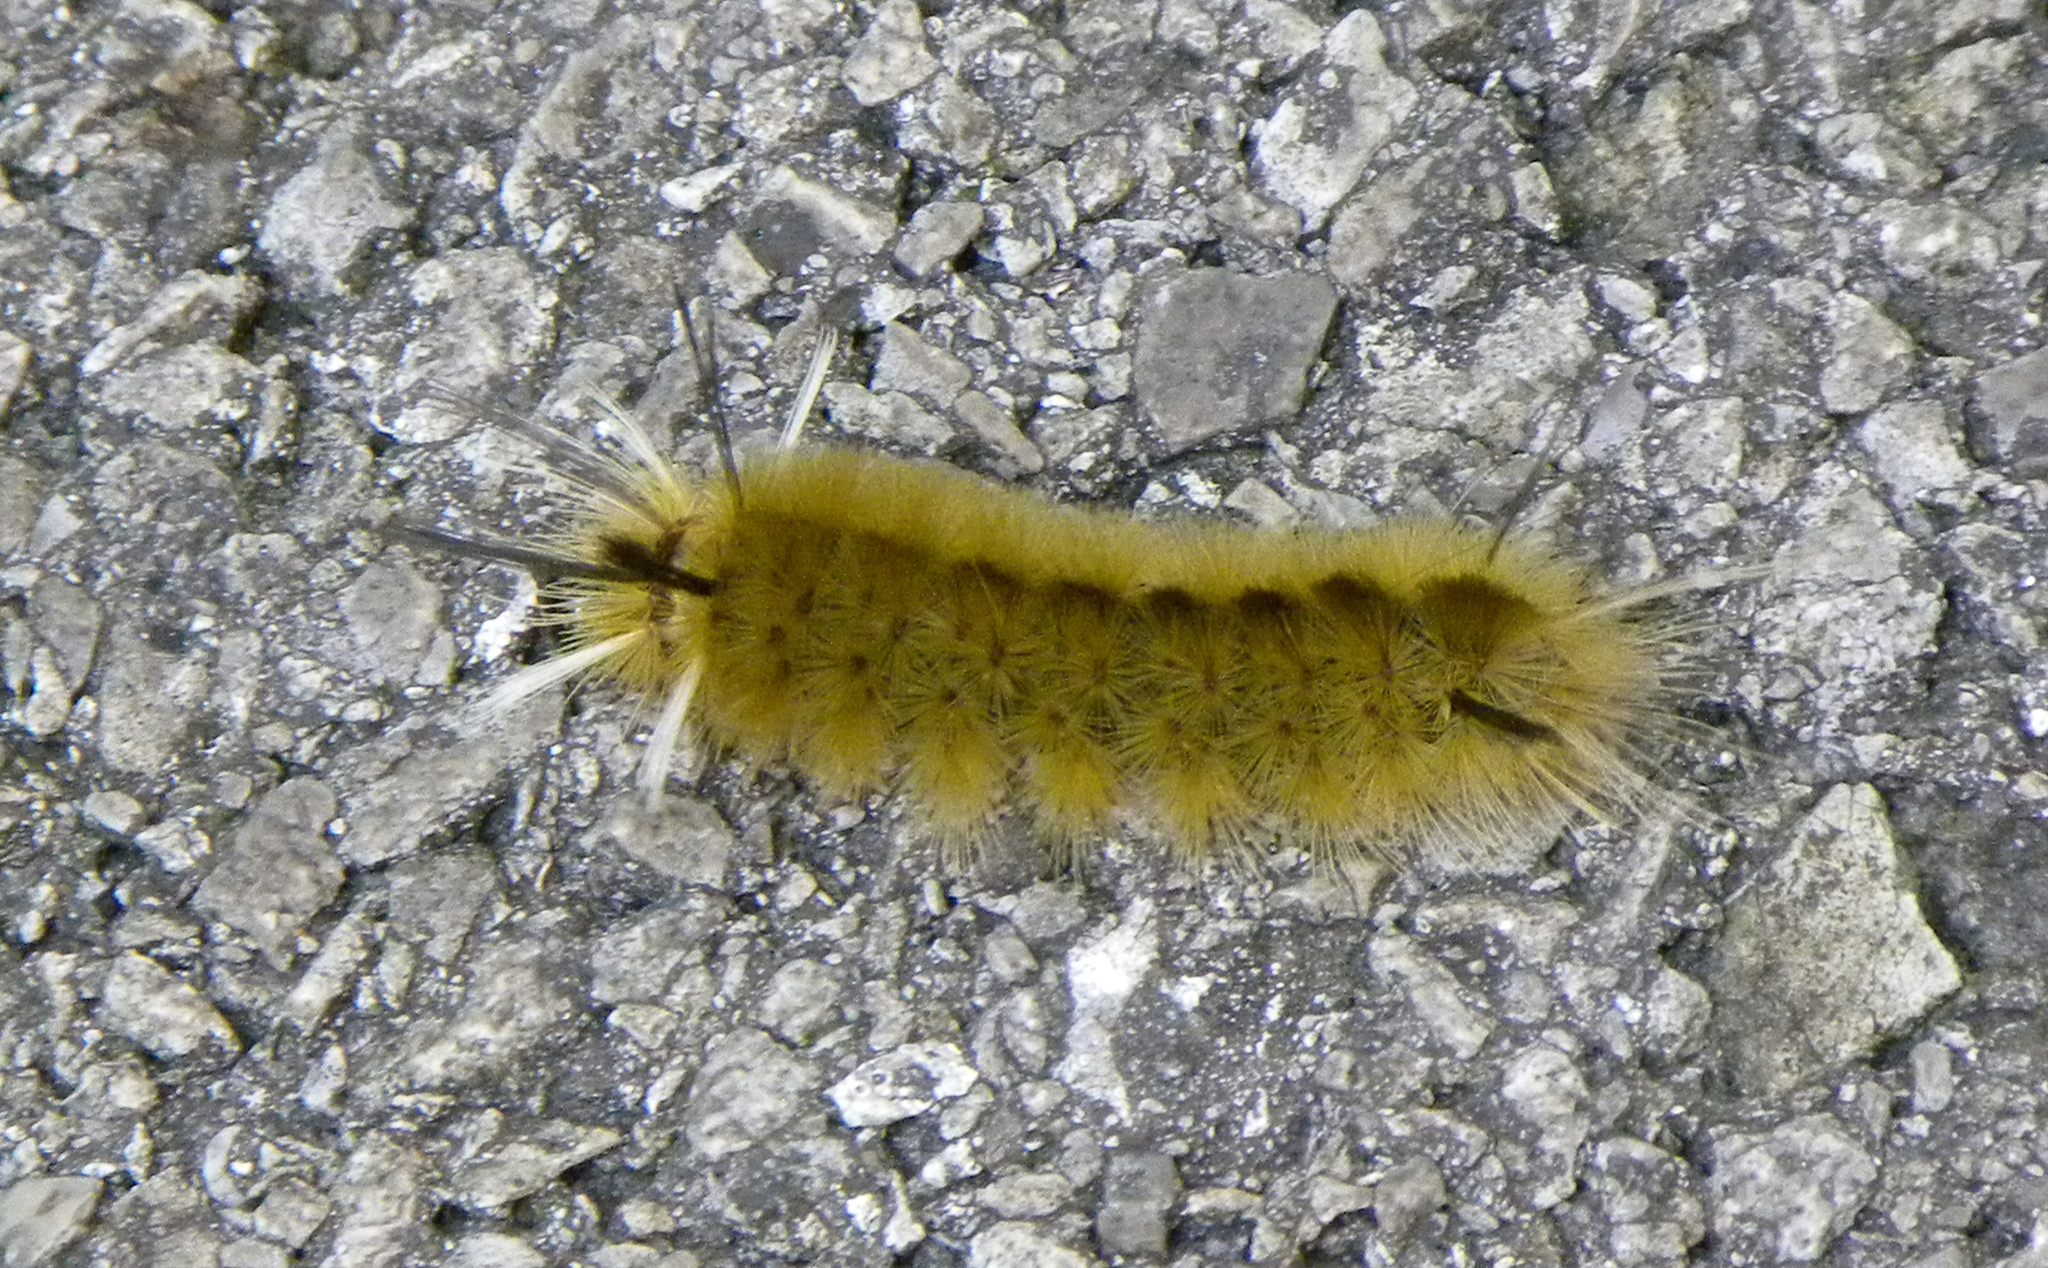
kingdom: Animalia
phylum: Arthropoda
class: Insecta
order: Lepidoptera
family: Erebidae
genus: Halysidota
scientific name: Halysidota tessellaris
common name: Banded tussock moth
